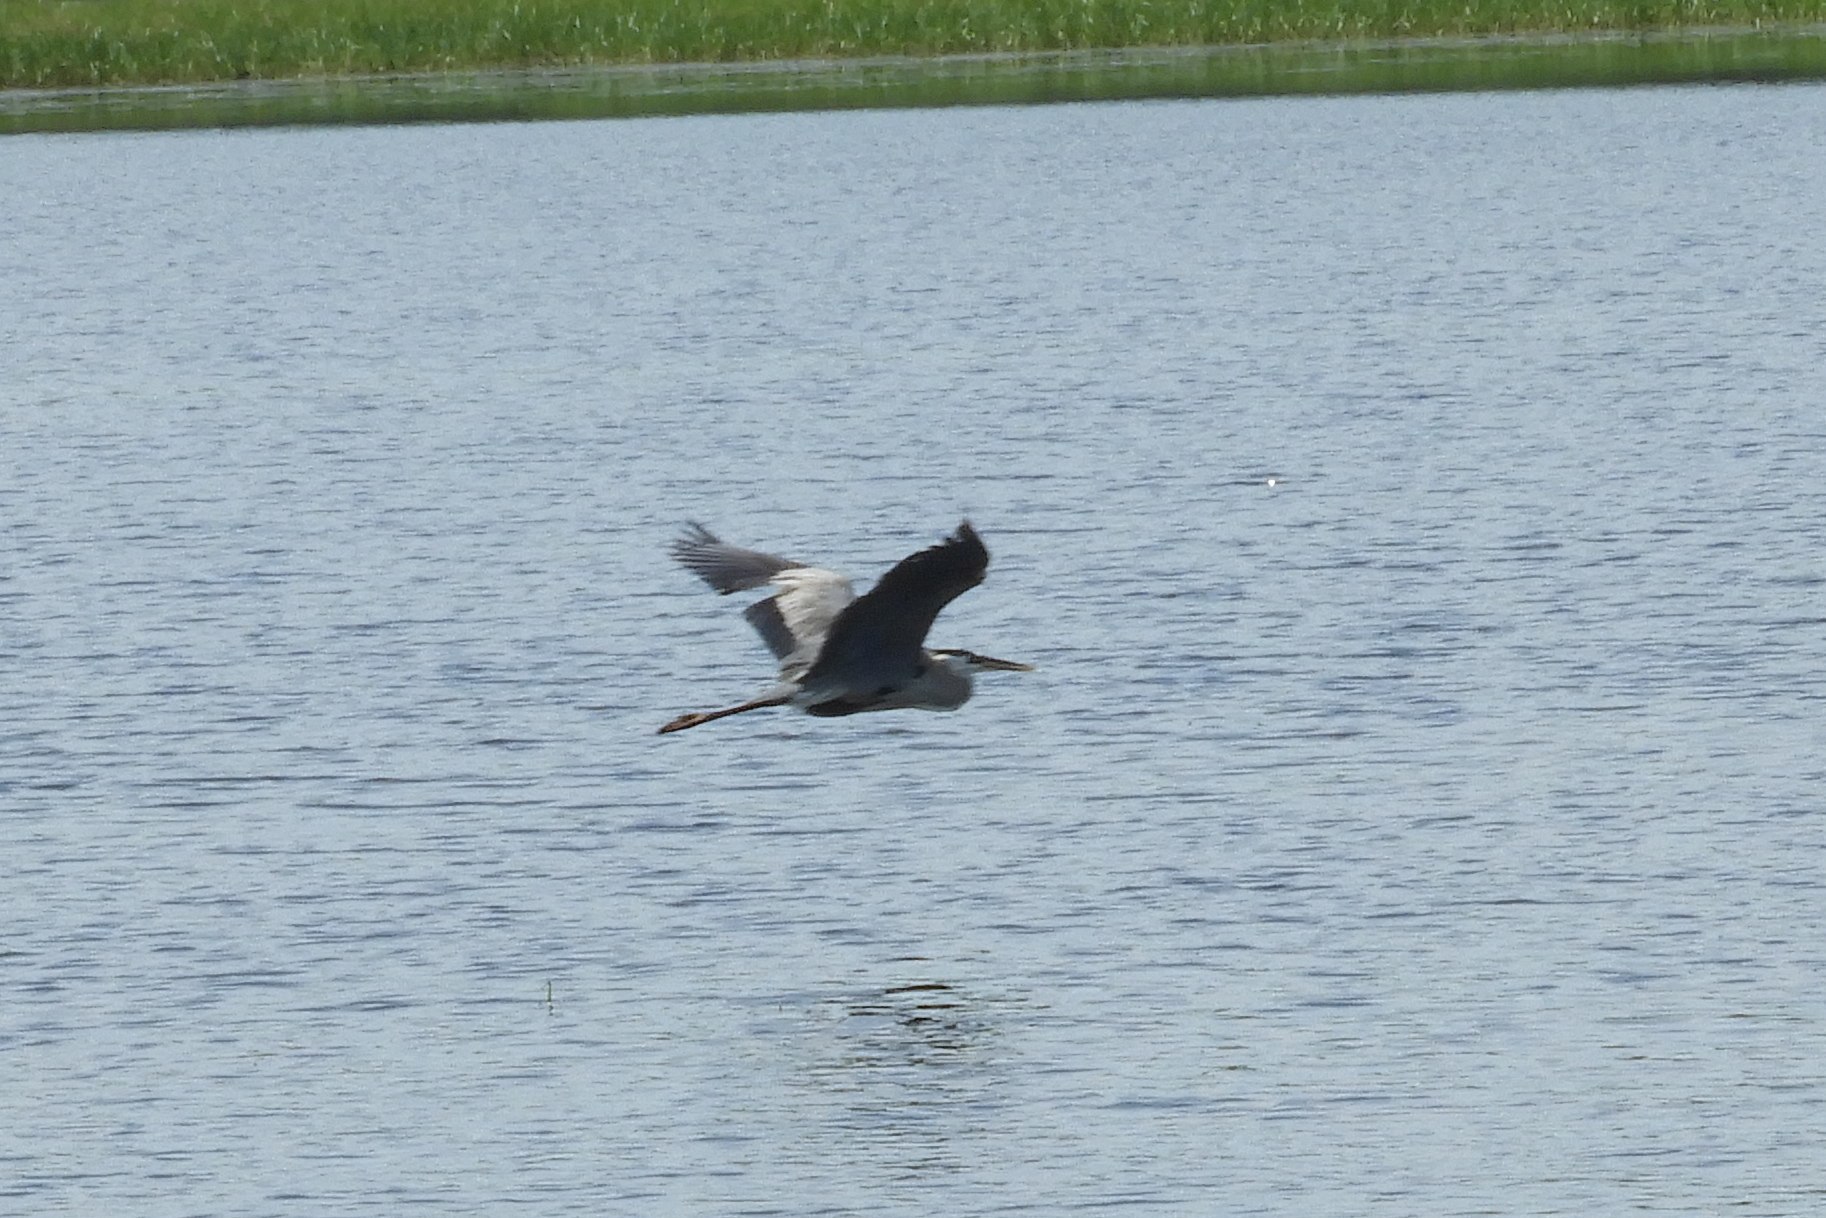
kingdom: Animalia
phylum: Chordata
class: Aves
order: Pelecaniformes
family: Ardeidae
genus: Ardea
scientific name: Ardea herodias
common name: Great blue heron
